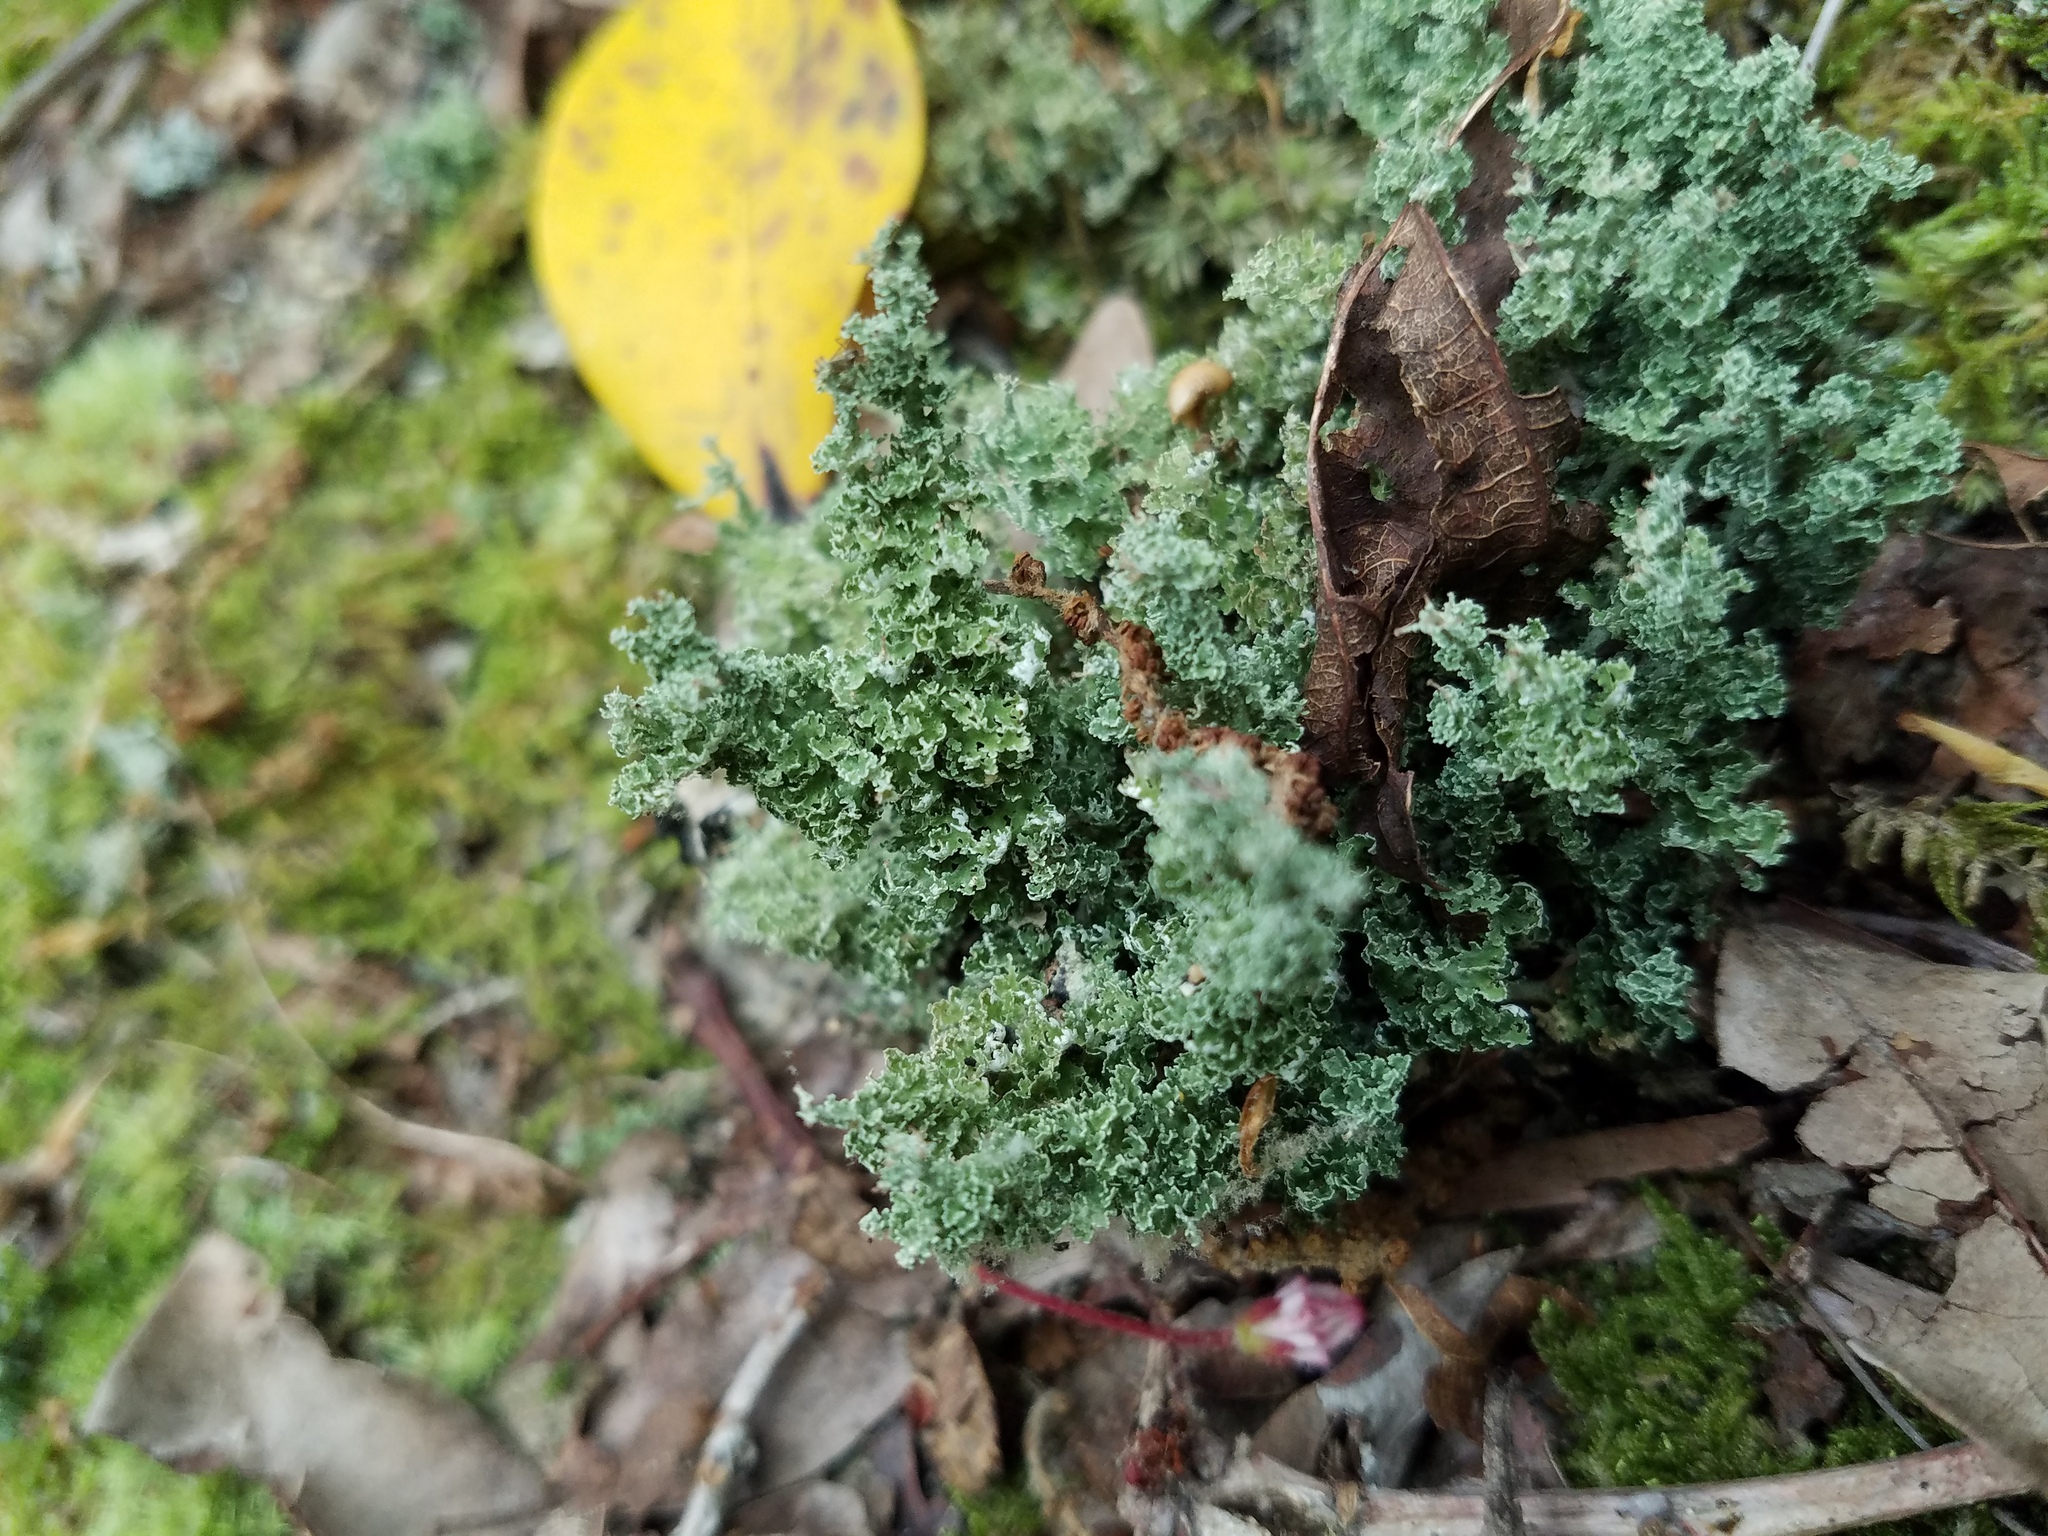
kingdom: Fungi
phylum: Ascomycota
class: Lecanoromycetes
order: Lecanorales
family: Cladoniaceae
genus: Cladonia
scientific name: Cladonia squamosa
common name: Dragon horn
